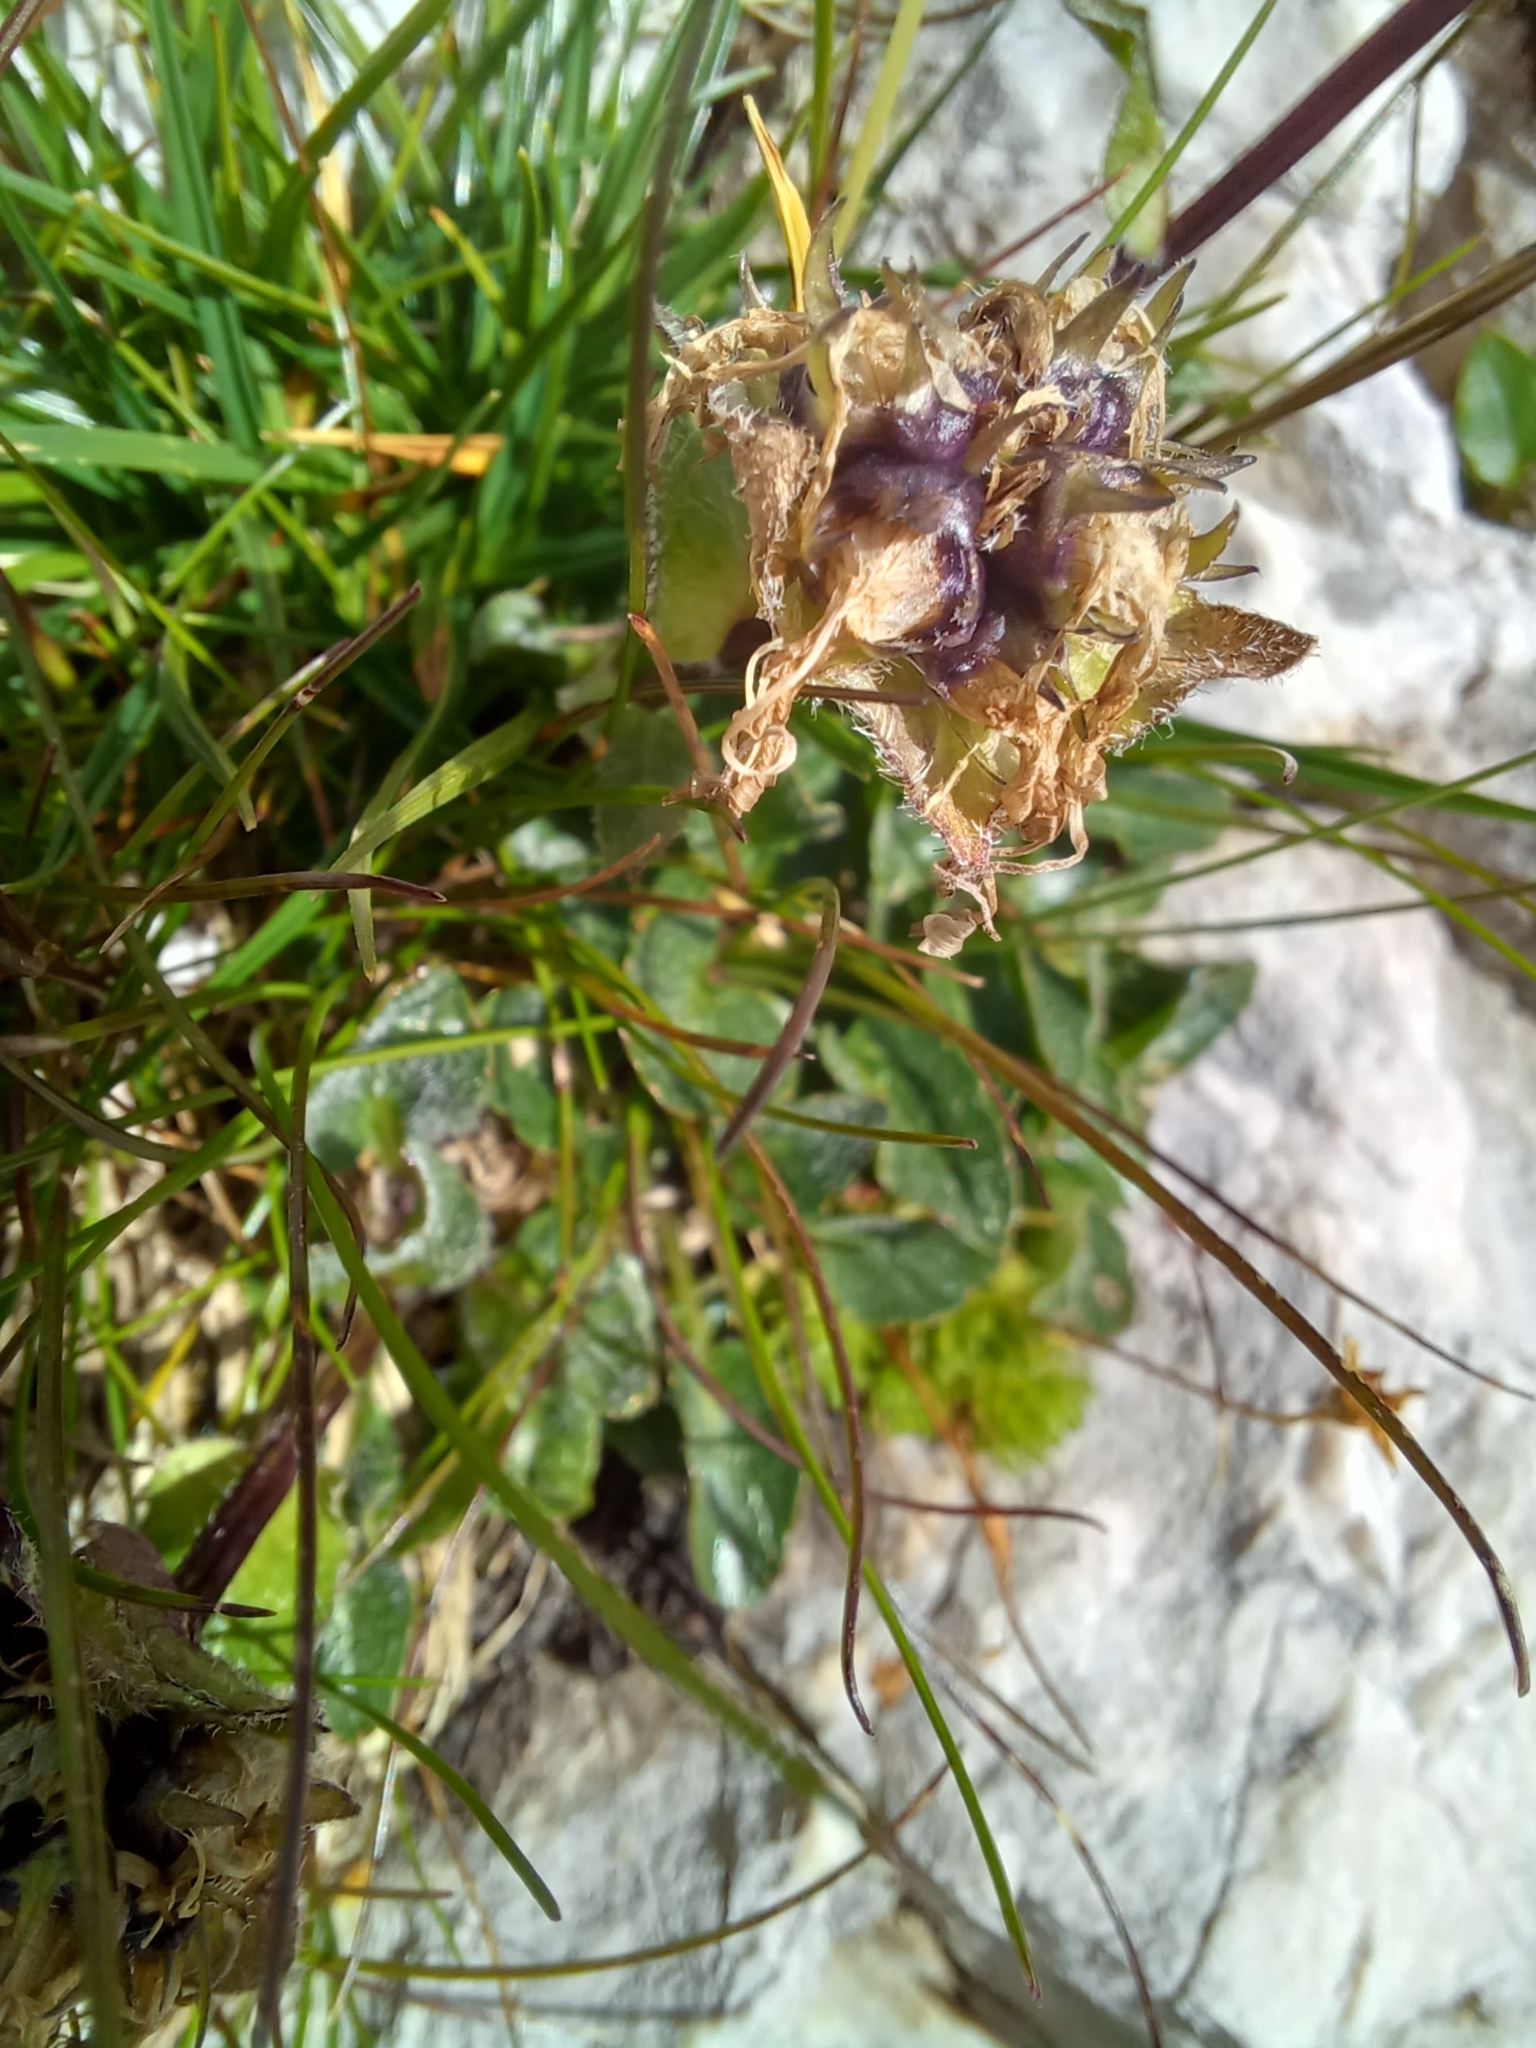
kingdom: Plantae
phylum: Tracheophyta
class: Magnoliopsida
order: Asterales
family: Campanulaceae
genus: Phyteuma
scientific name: Phyteuma sieberi
